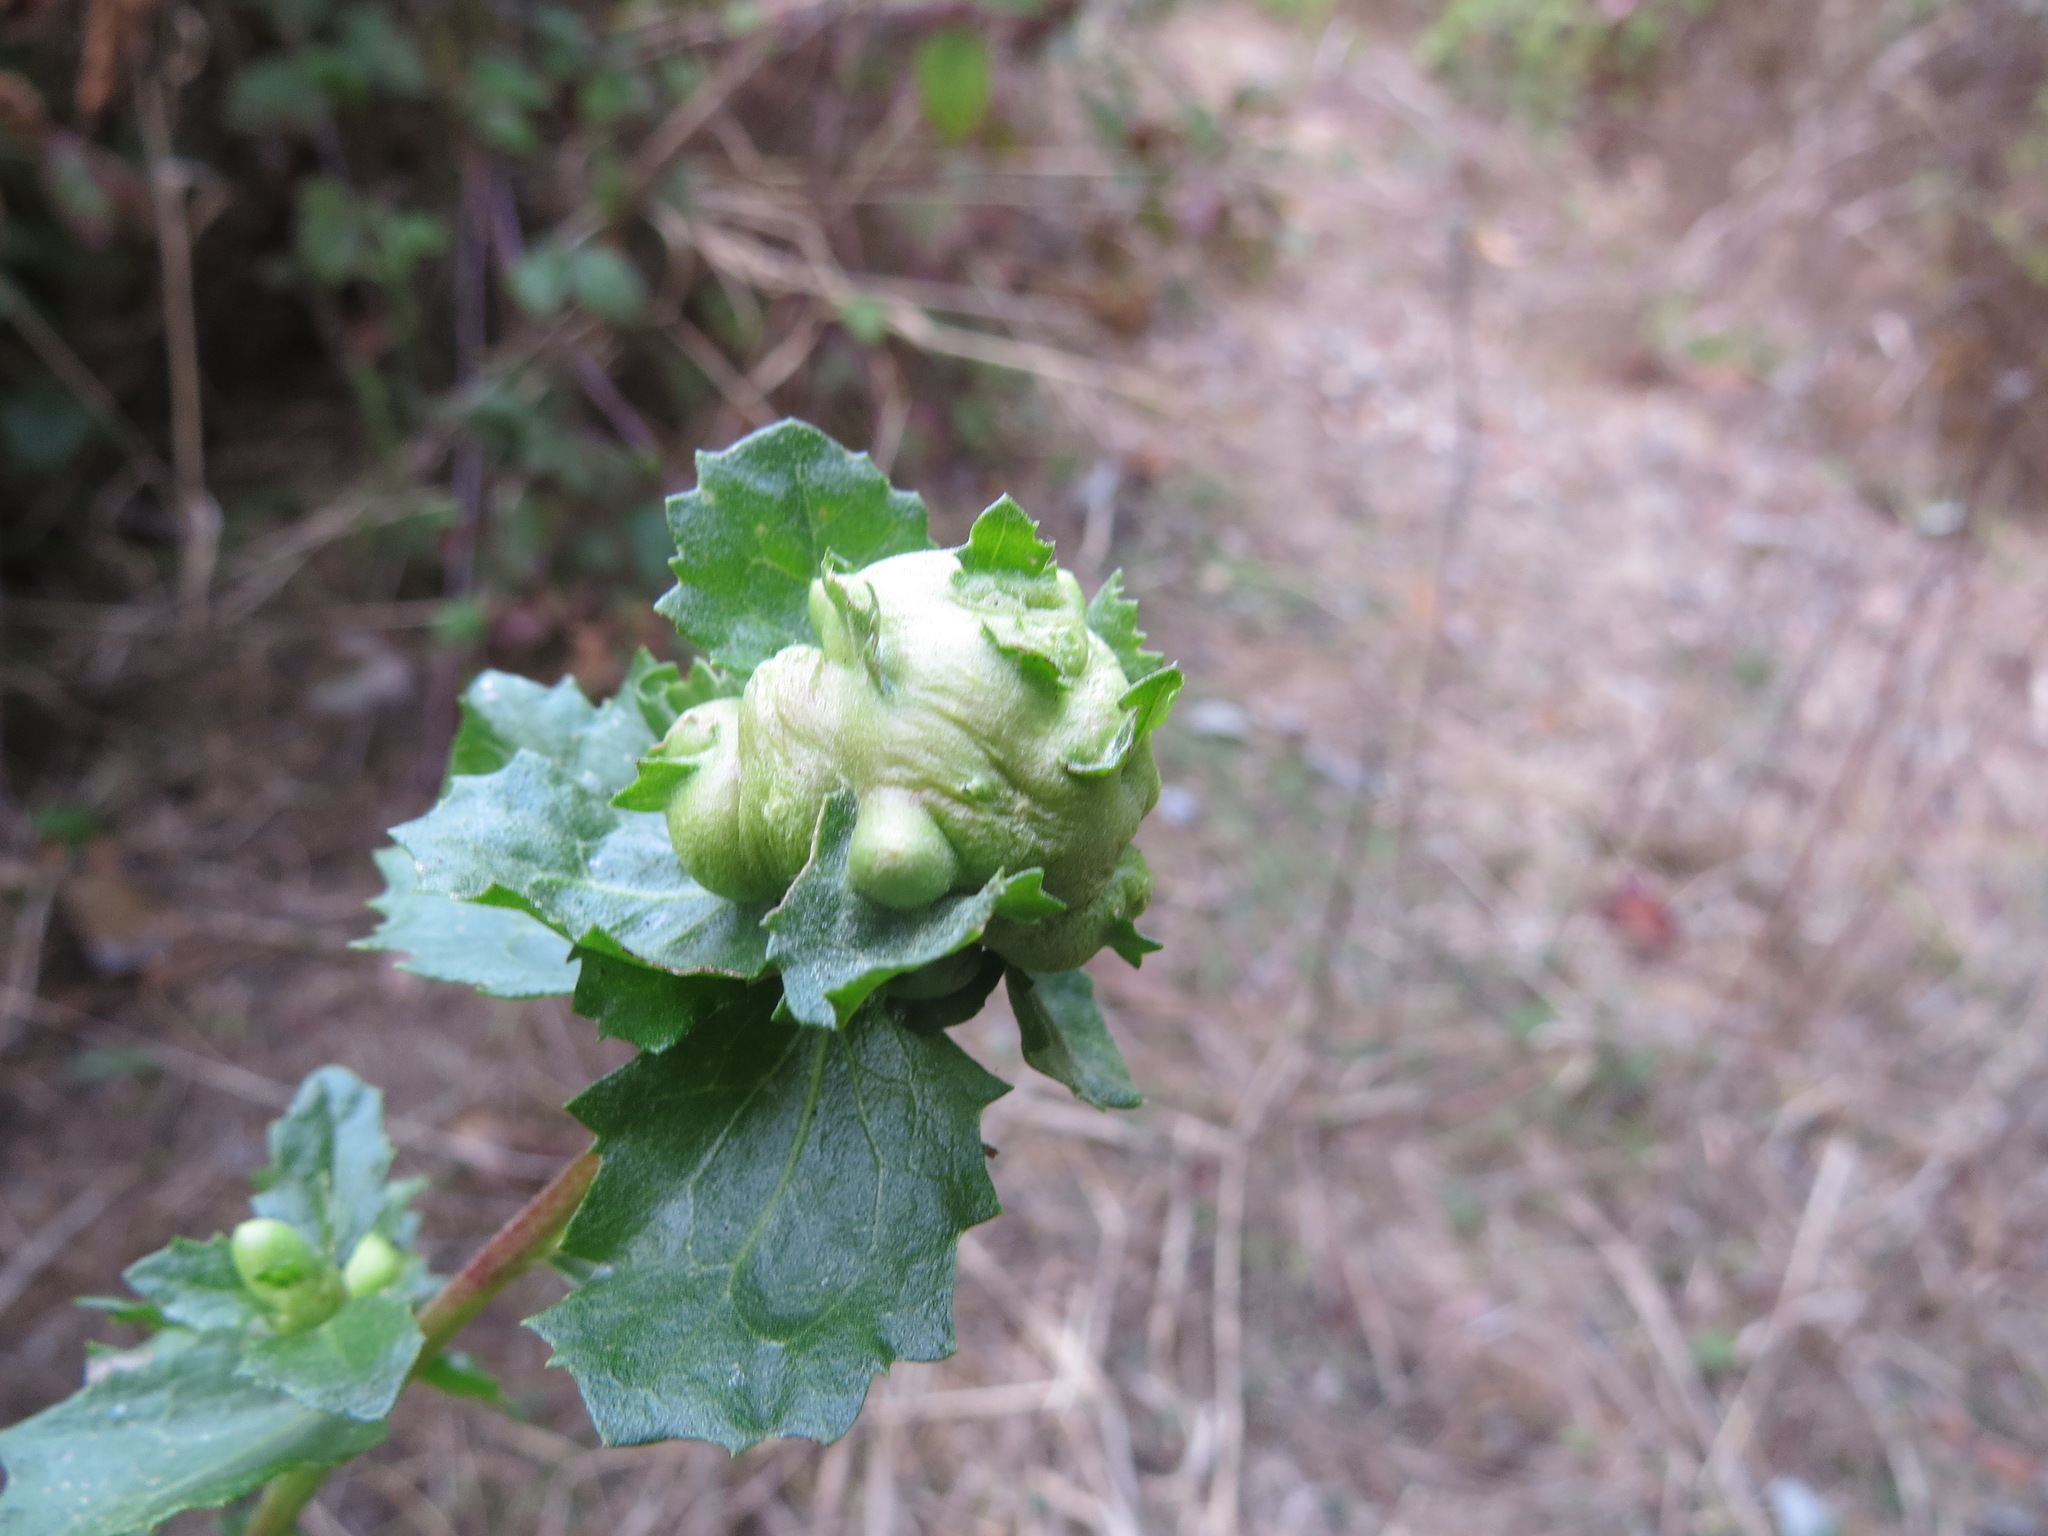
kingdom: Animalia
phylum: Arthropoda
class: Insecta
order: Diptera
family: Cecidomyiidae
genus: Rhopalomyia
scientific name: Rhopalomyia californica
